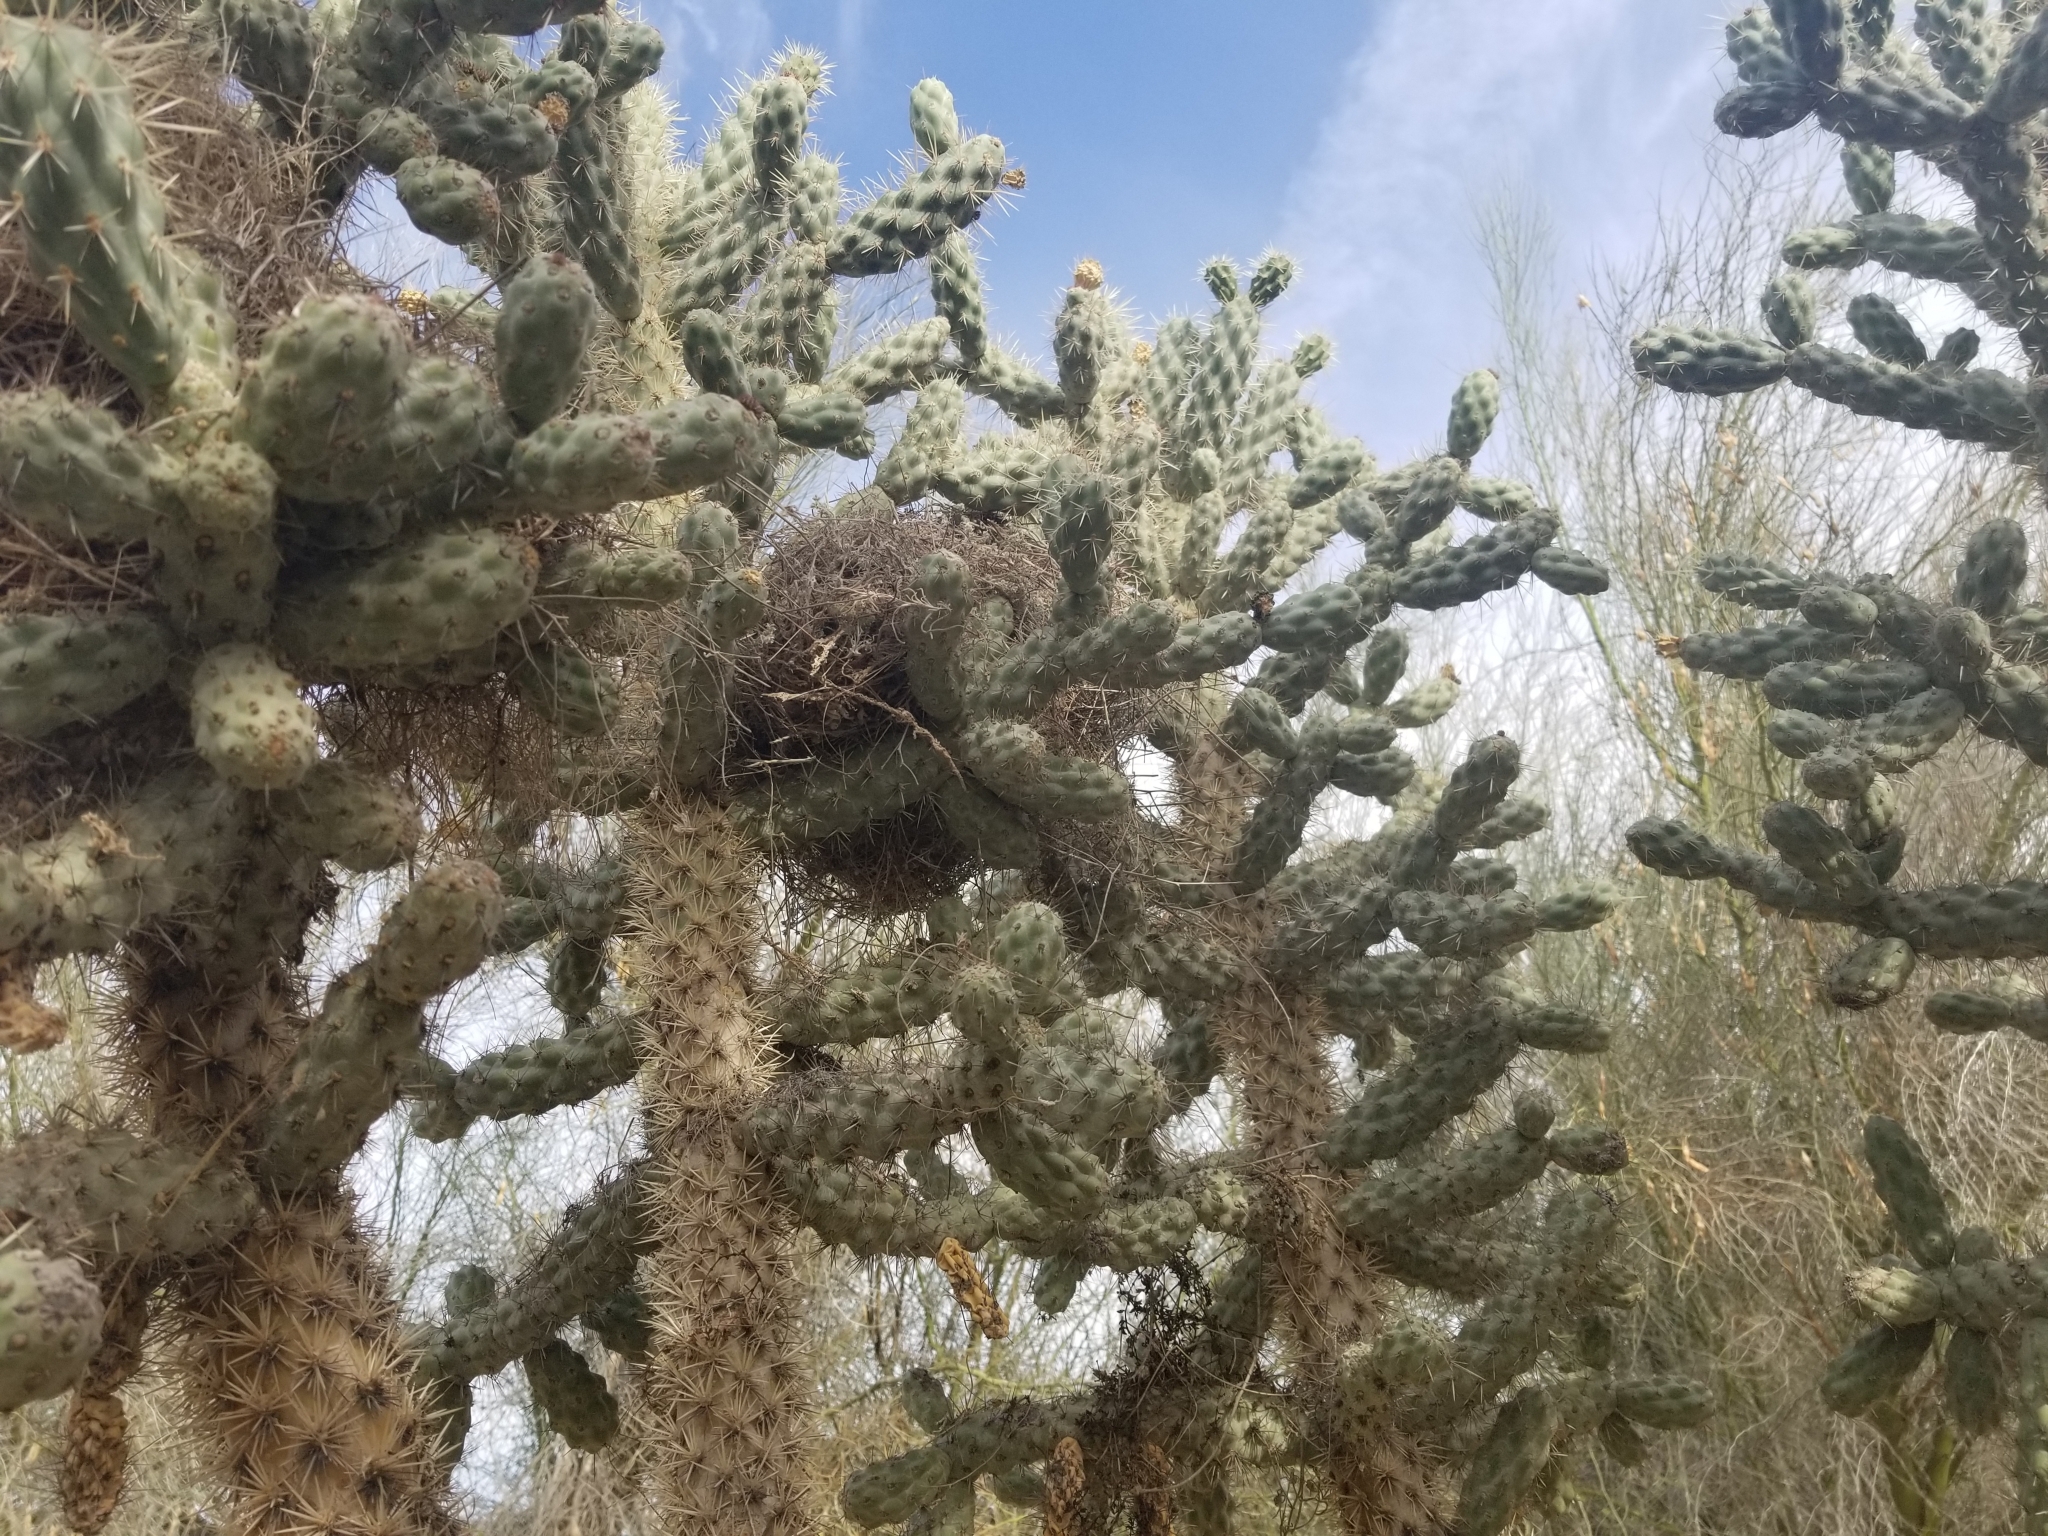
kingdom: Plantae
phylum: Tracheophyta
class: Magnoliopsida
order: Caryophyllales
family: Cactaceae
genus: Cylindropuntia
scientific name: Cylindropuntia munzii
